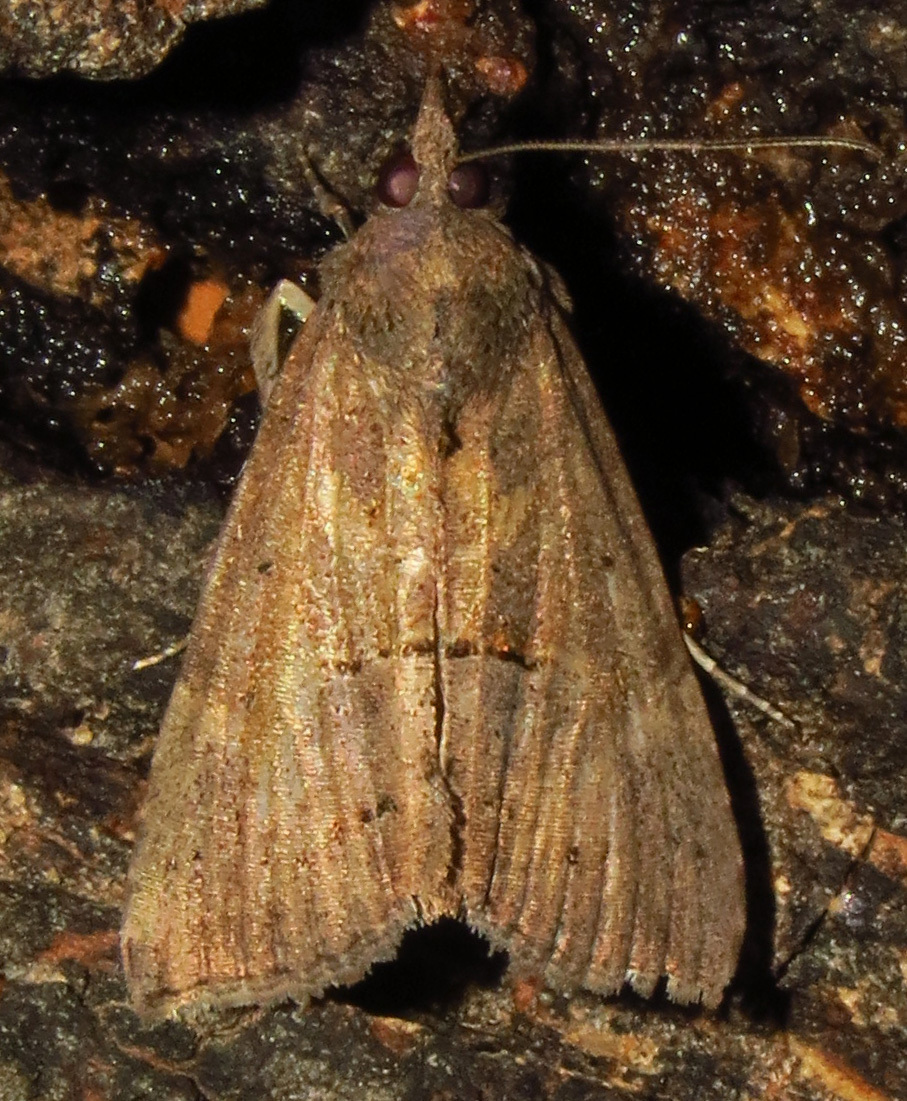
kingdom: Animalia
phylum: Arthropoda
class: Insecta
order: Lepidoptera
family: Erebidae
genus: Hypena
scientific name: Hypena scabra
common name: Green cloverworm
